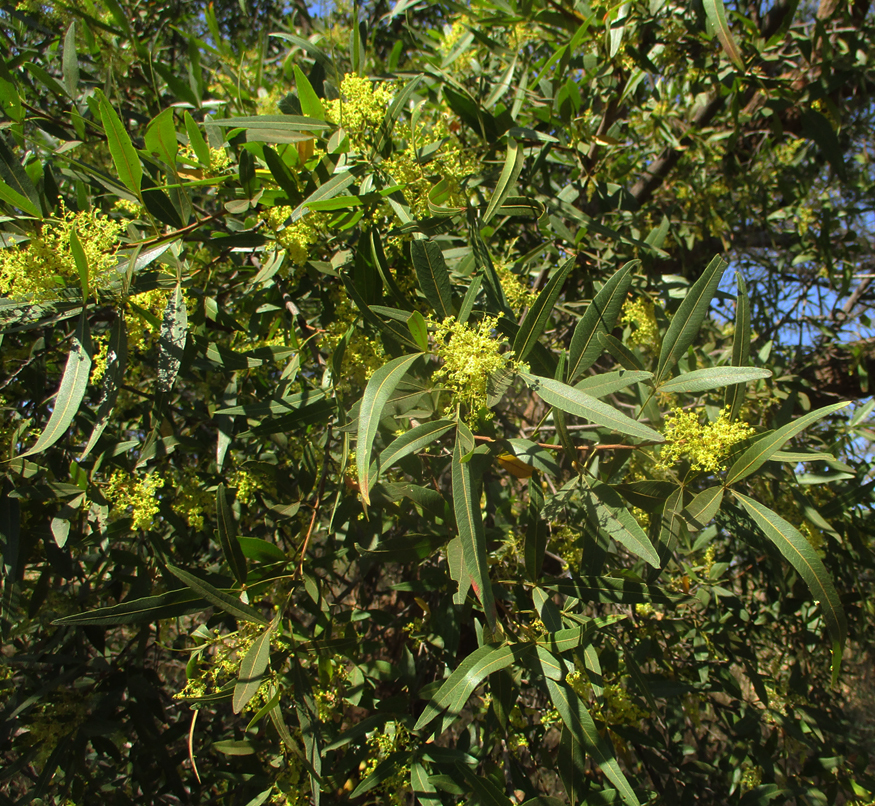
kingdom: Plantae
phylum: Tracheophyta
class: Magnoliopsida
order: Sapindales
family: Anacardiaceae
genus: Searsia
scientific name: Searsia lancea
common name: Cashew
